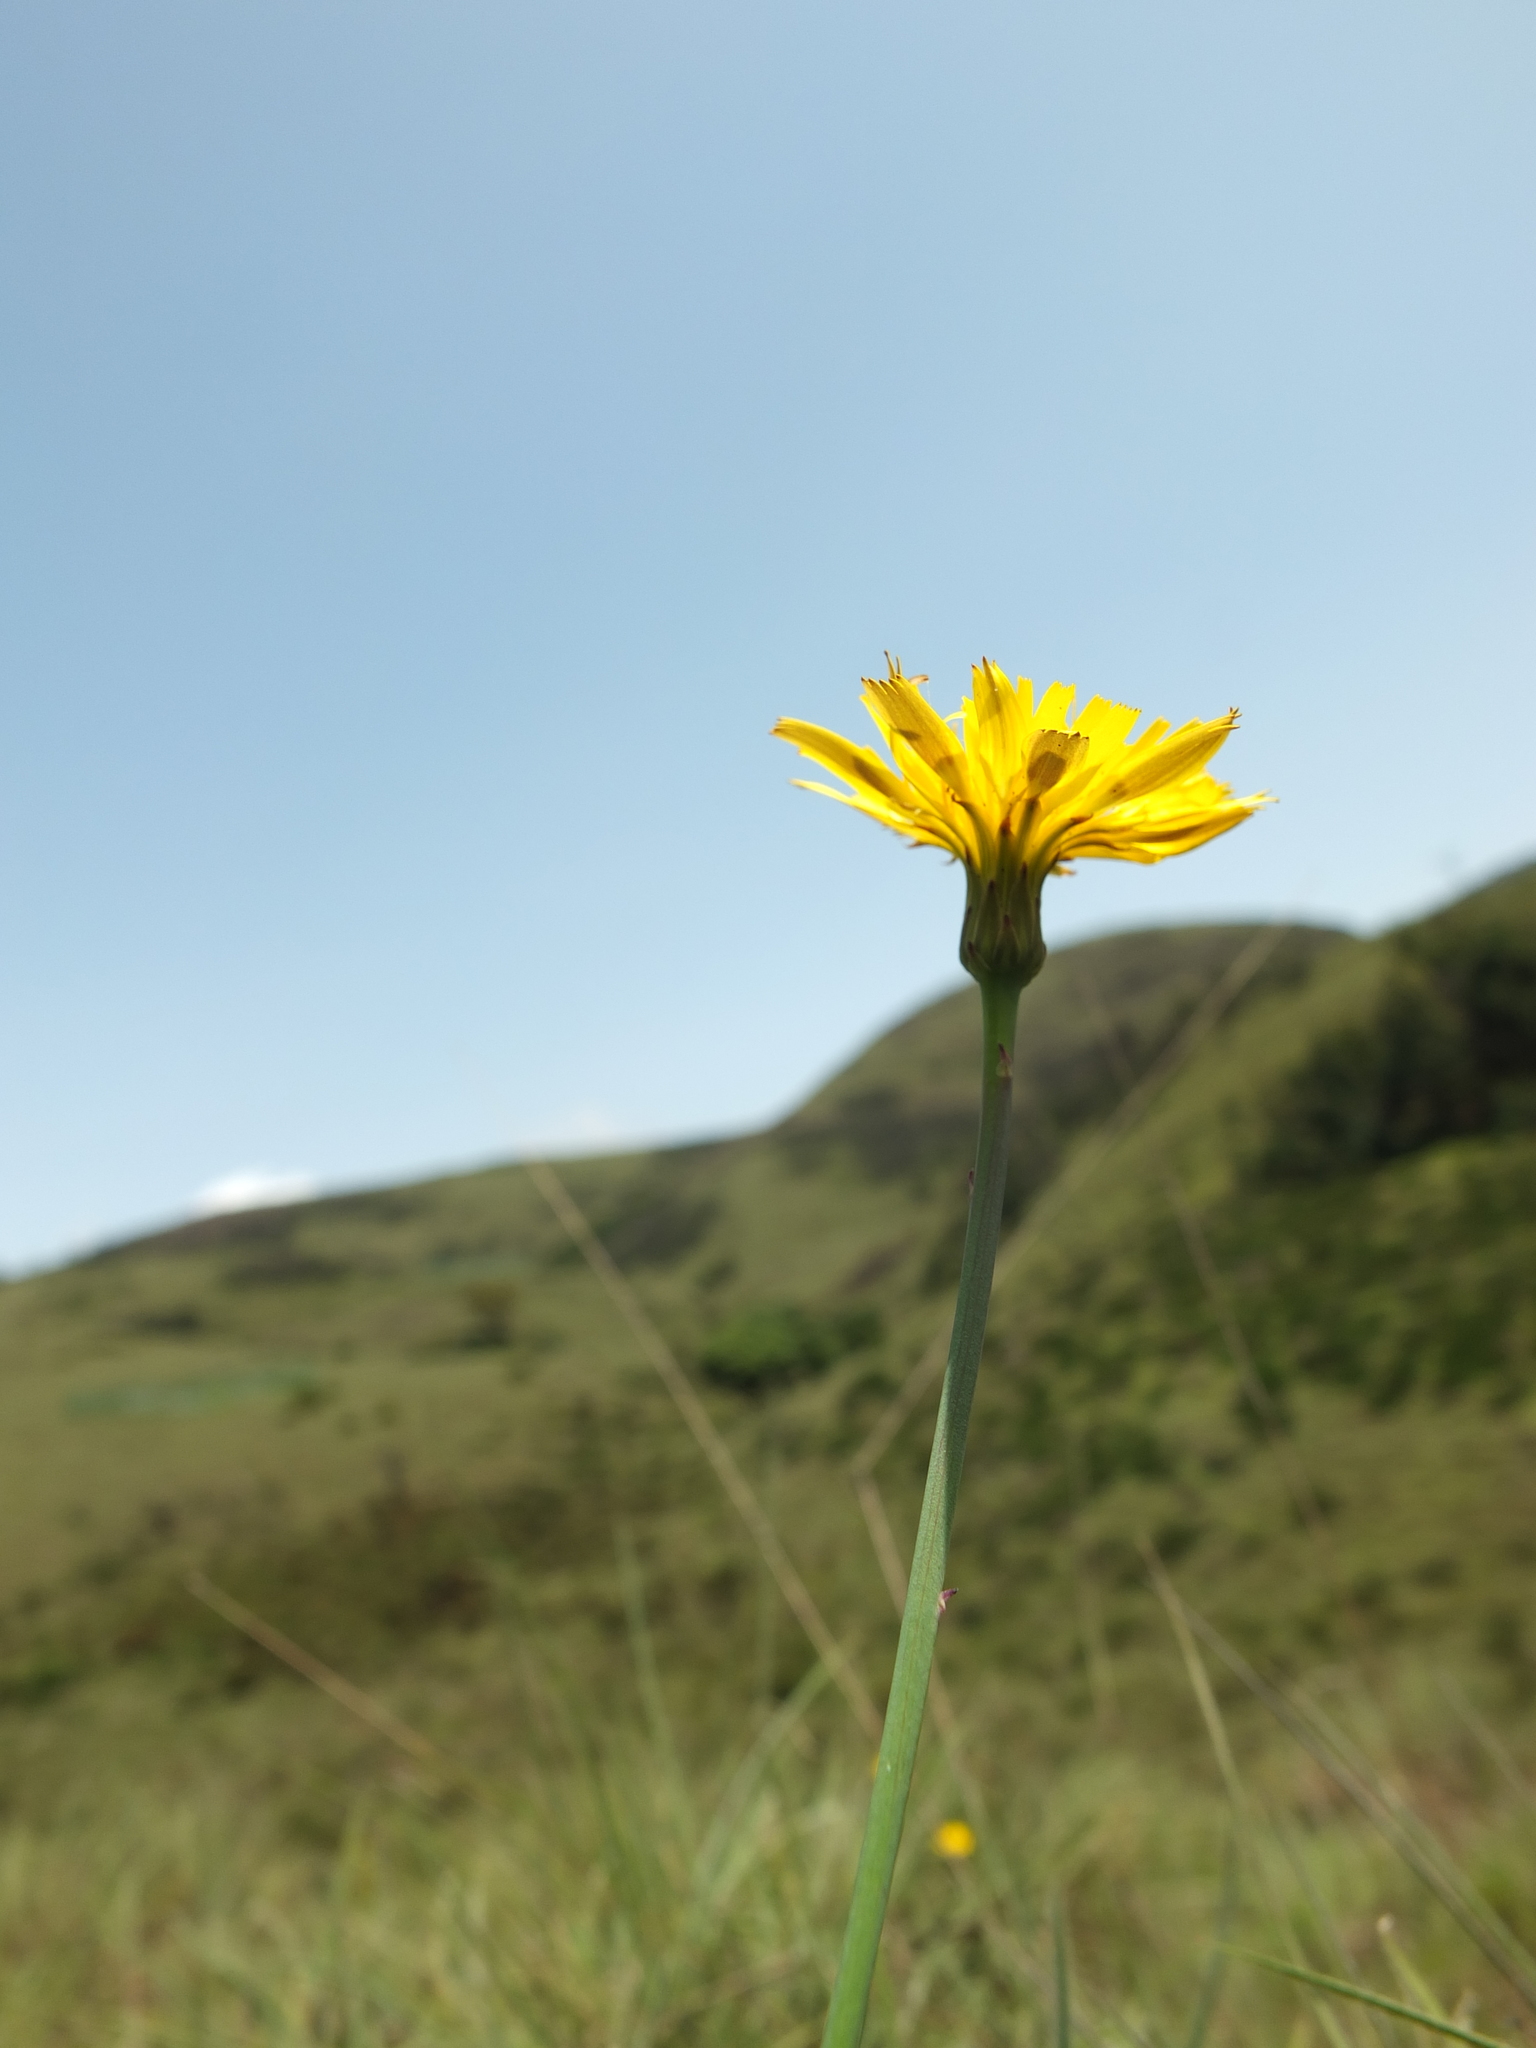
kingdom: Plantae
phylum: Tracheophyta
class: Magnoliopsida
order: Asterales
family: Asteraceae
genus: Taraxacum
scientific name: Taraxacum japonicum
